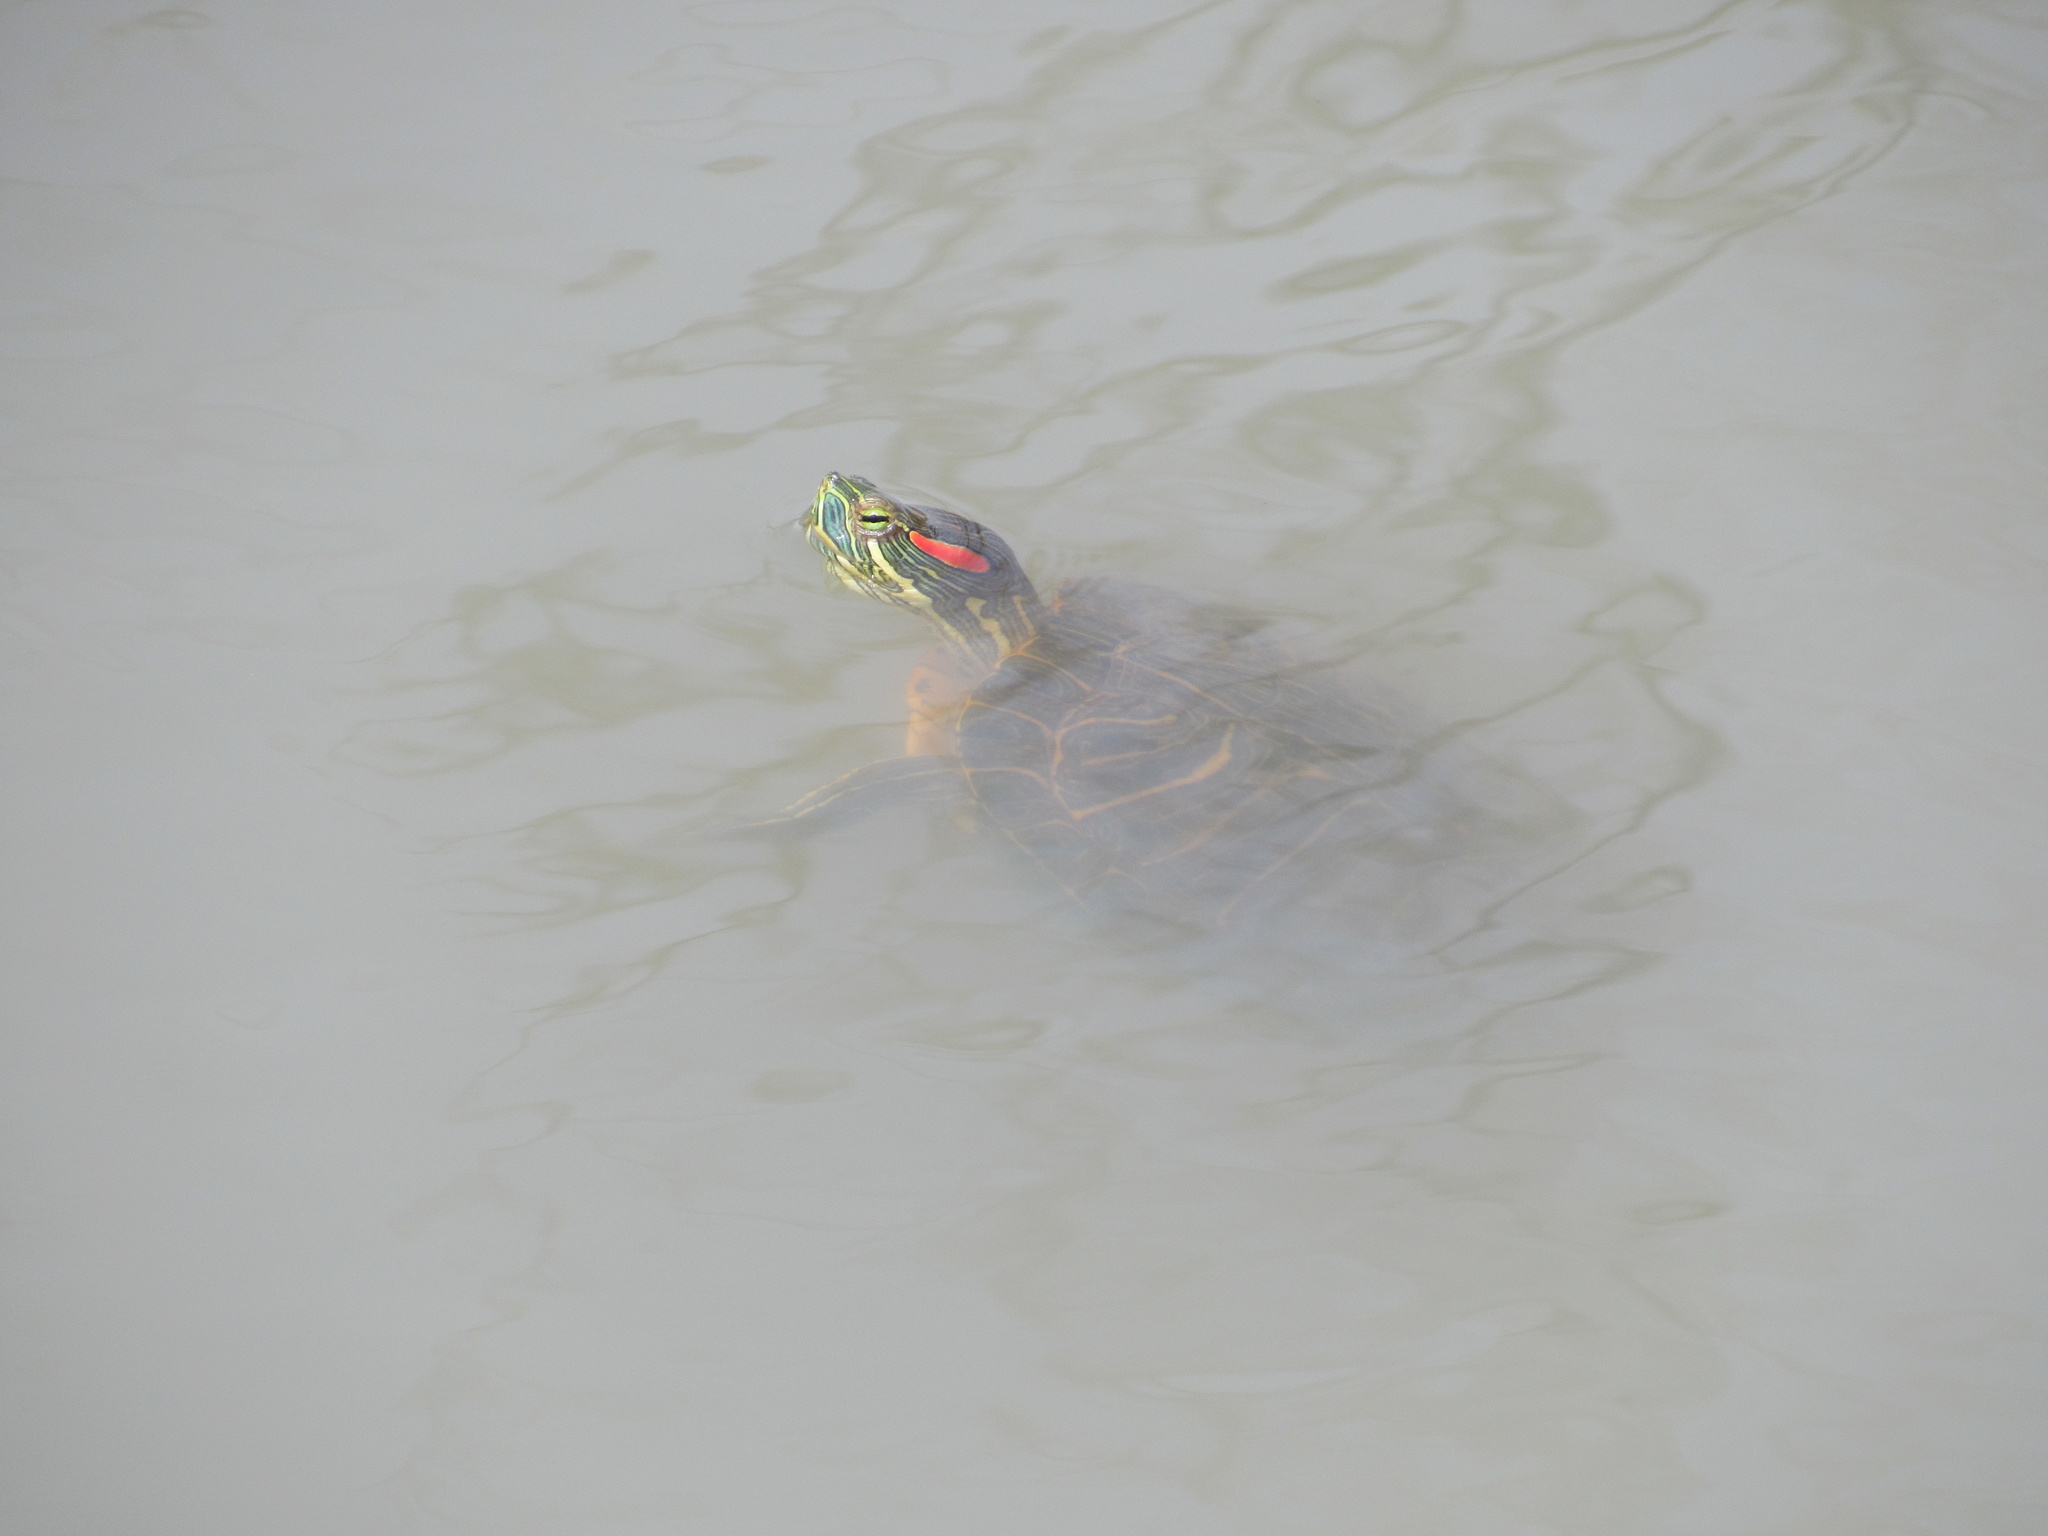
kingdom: Animalia
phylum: Chordata
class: Testudines
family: Emydidae
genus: Trachemys
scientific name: Trachemys scripta
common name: Slider
